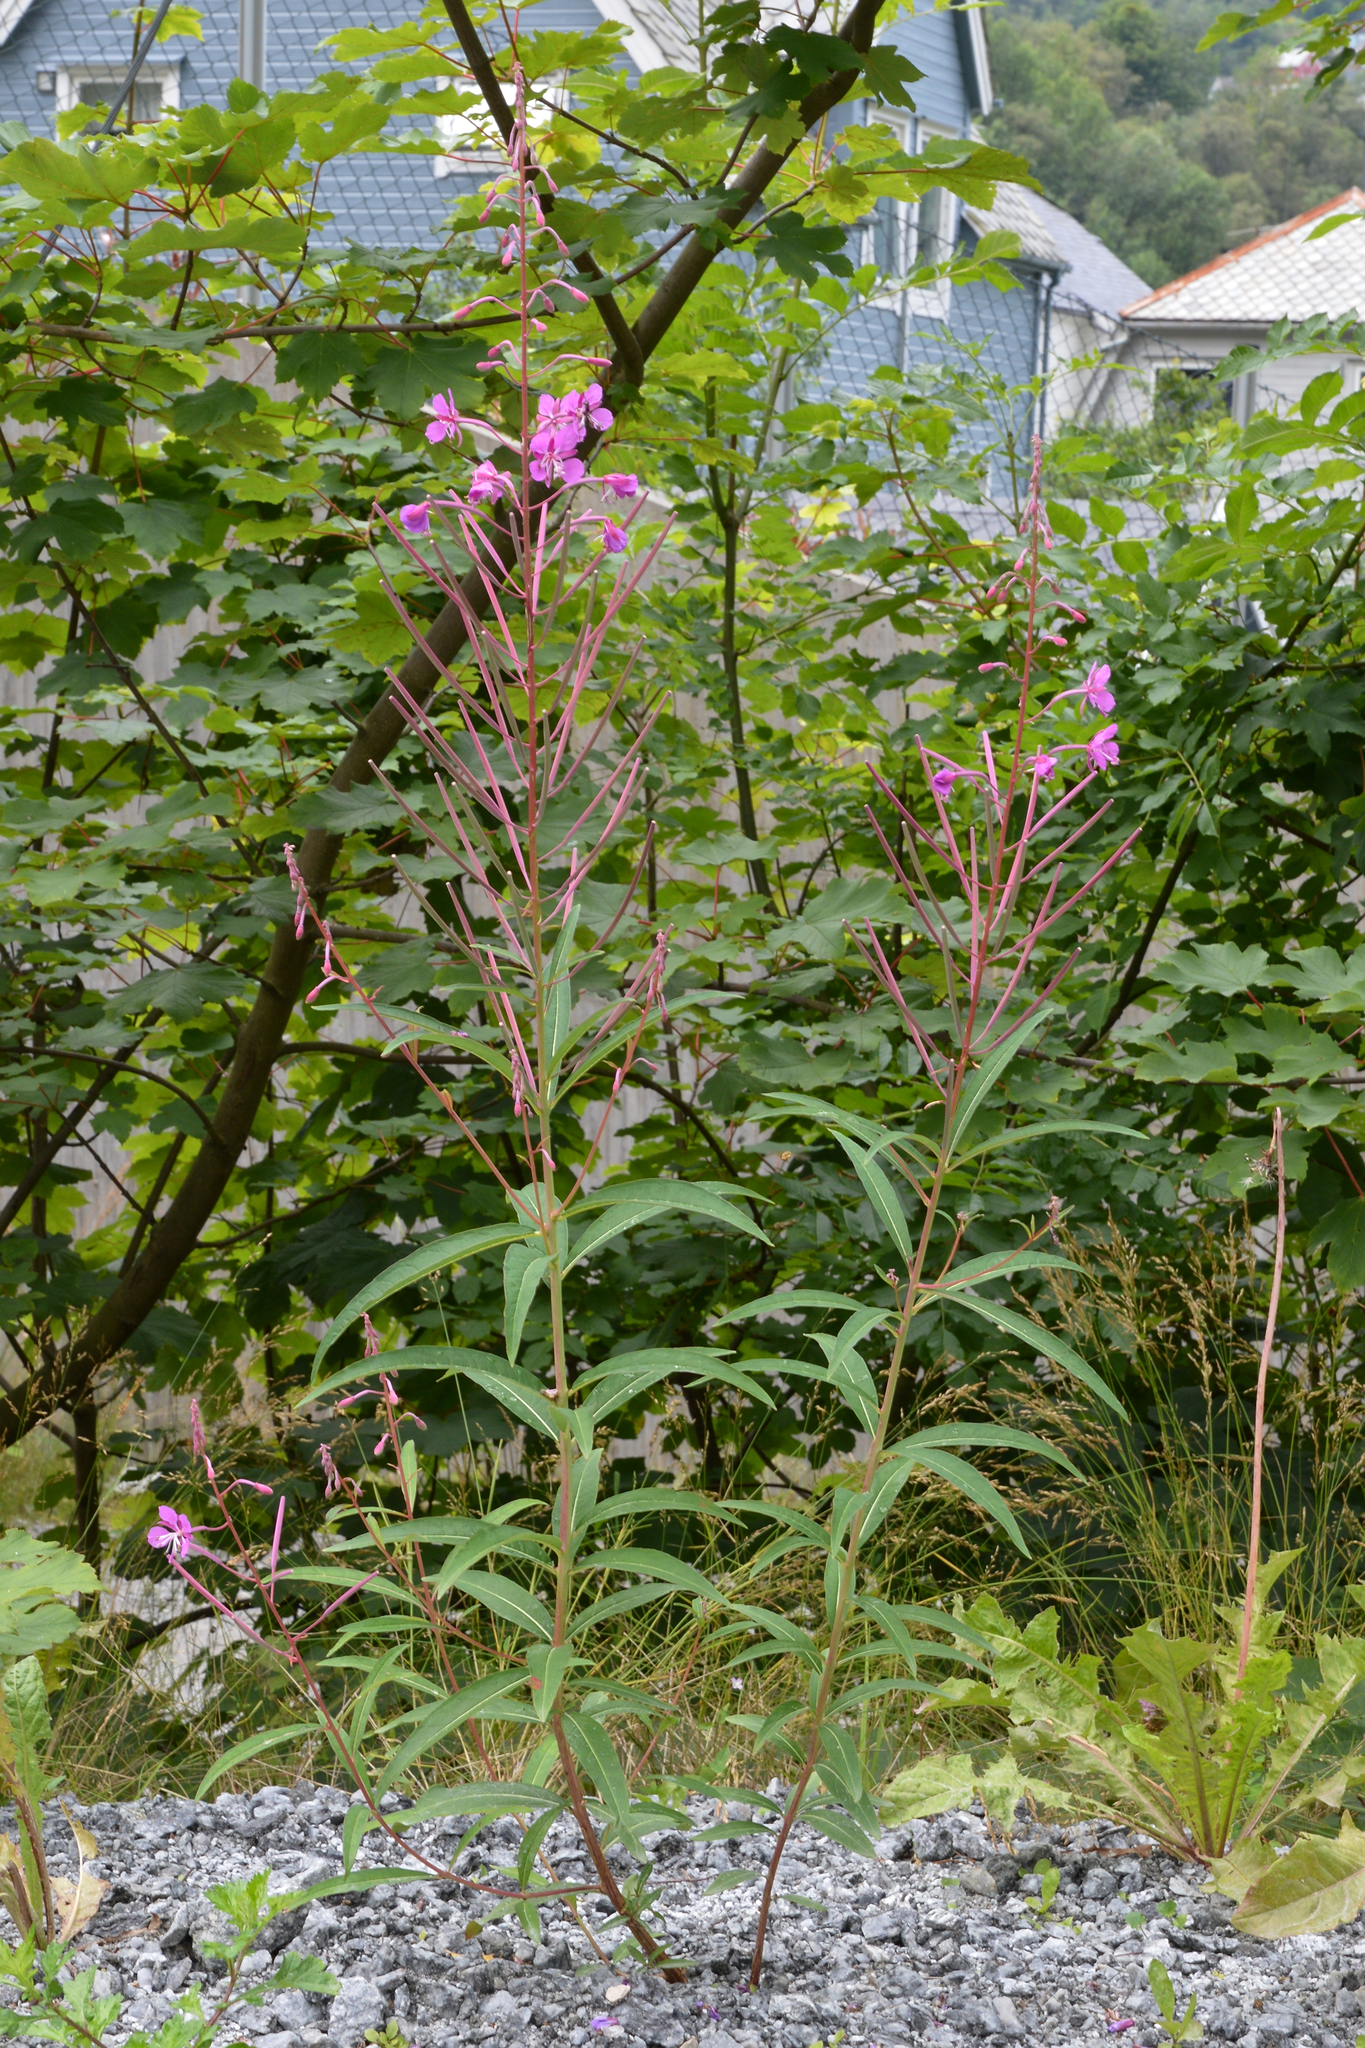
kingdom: Plantae
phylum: Tracheophyta
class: Magnoliopsida
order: Myrtales
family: Onagraceae
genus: Chamaenerion
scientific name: Chamaenerion angustifolium
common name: Fireweed
